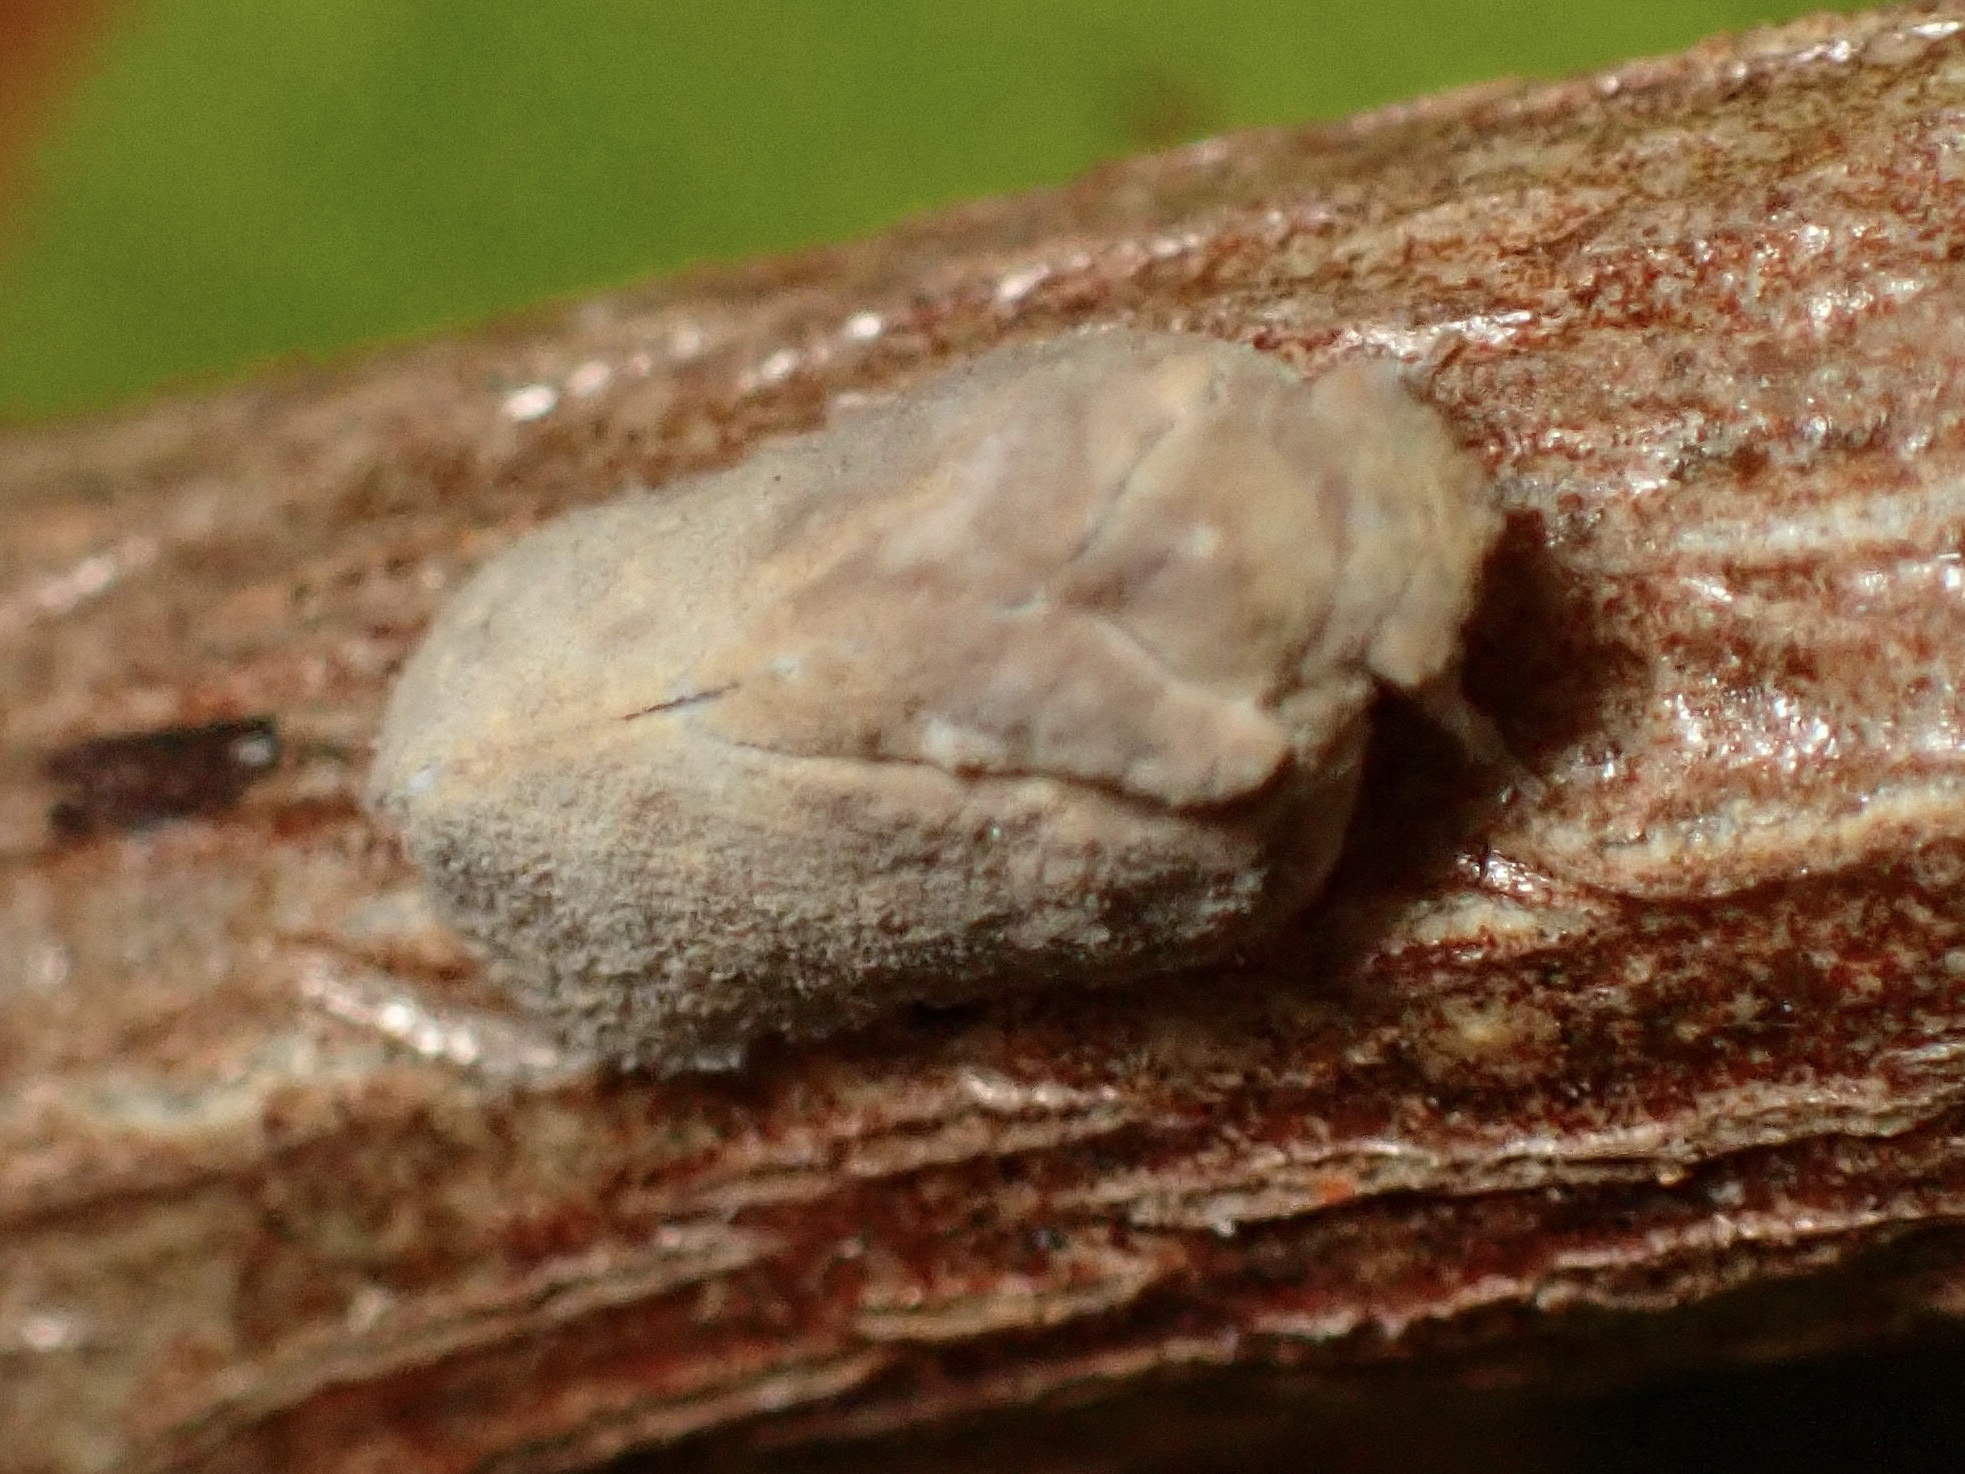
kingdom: Animalia
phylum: Arthropoda
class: Insecta
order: Hemiptera
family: Flatidae
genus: Melormenis
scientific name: Melormenis basalis
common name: Puerto rican planthopper
